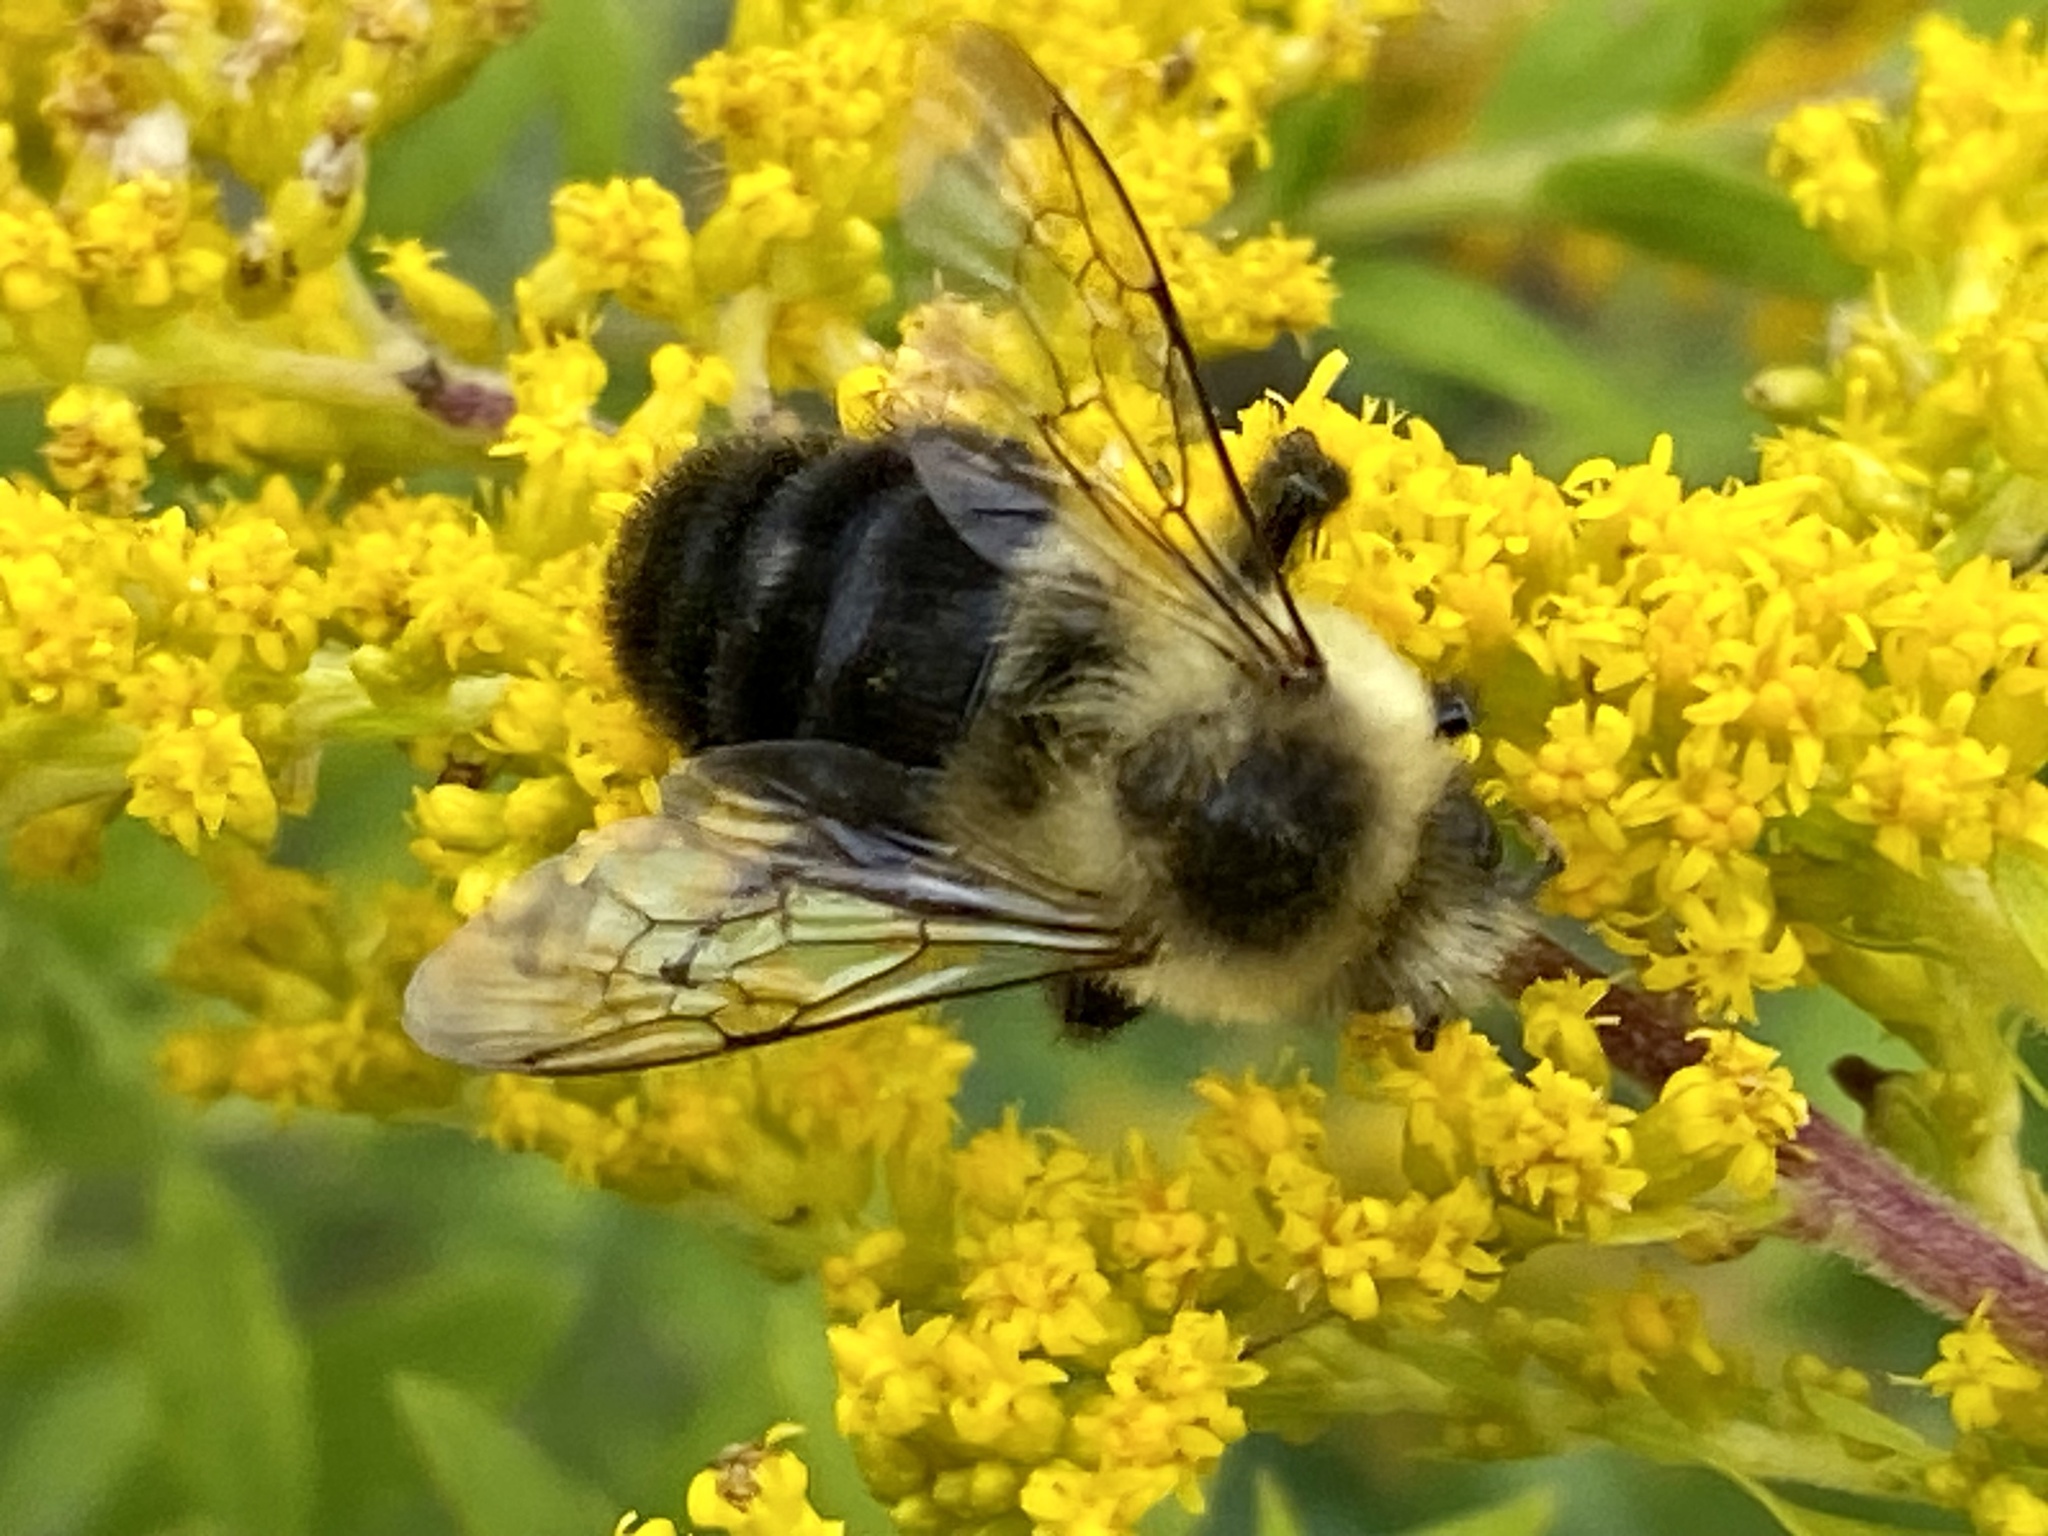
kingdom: Animalia
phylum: Arthropoda
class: Insecta
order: Hymenoptera
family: Apidae
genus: Bombus
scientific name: Bombus impatiens
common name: Common eastern bumble bee
